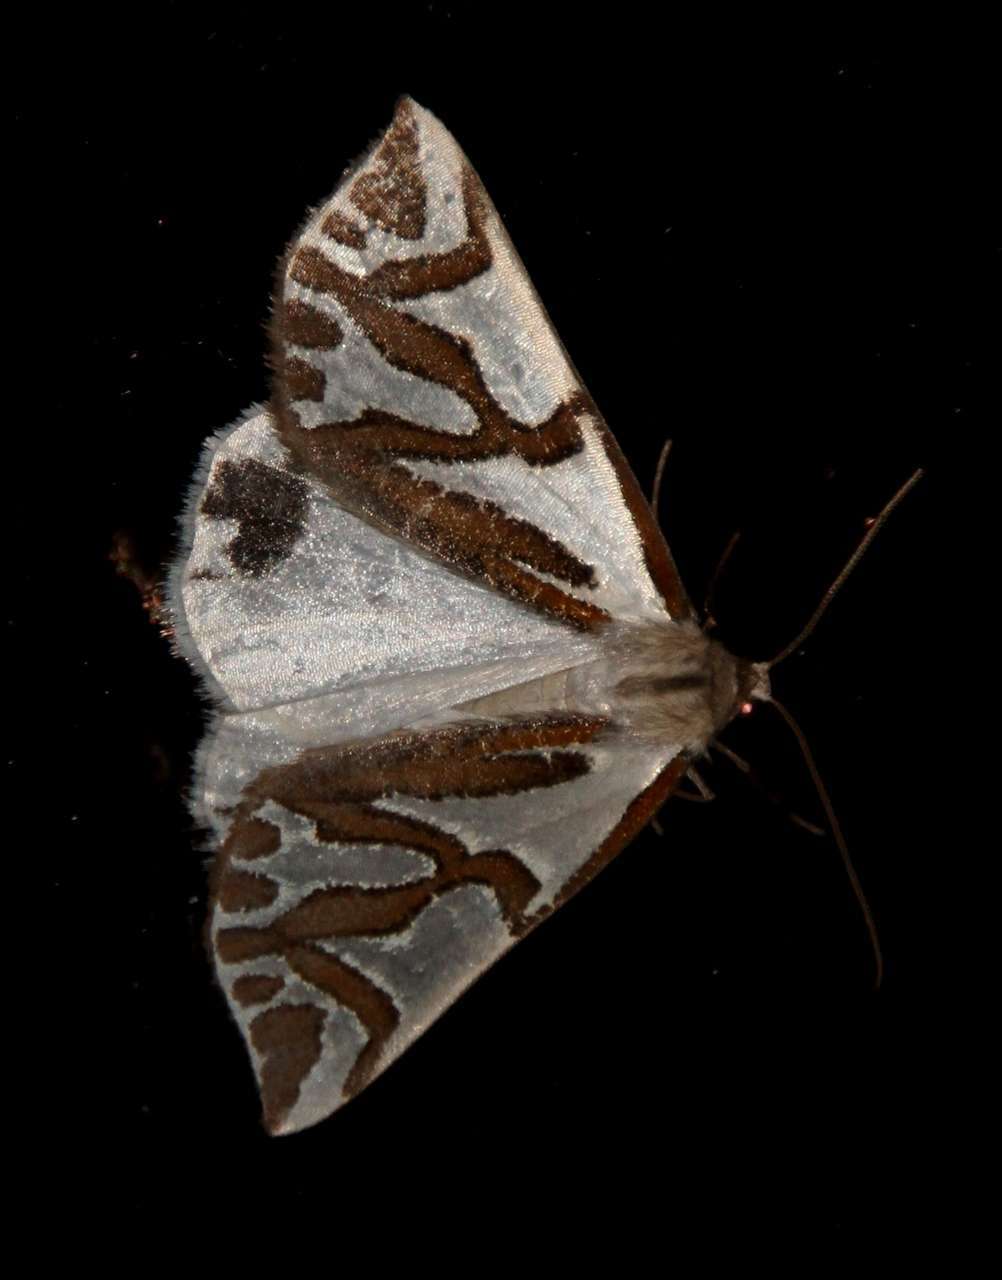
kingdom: Animalia
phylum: Arthropoda
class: Insecta
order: Lepidoptera
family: Geometridae
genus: Thalaina
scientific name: Thalaina inscripta
